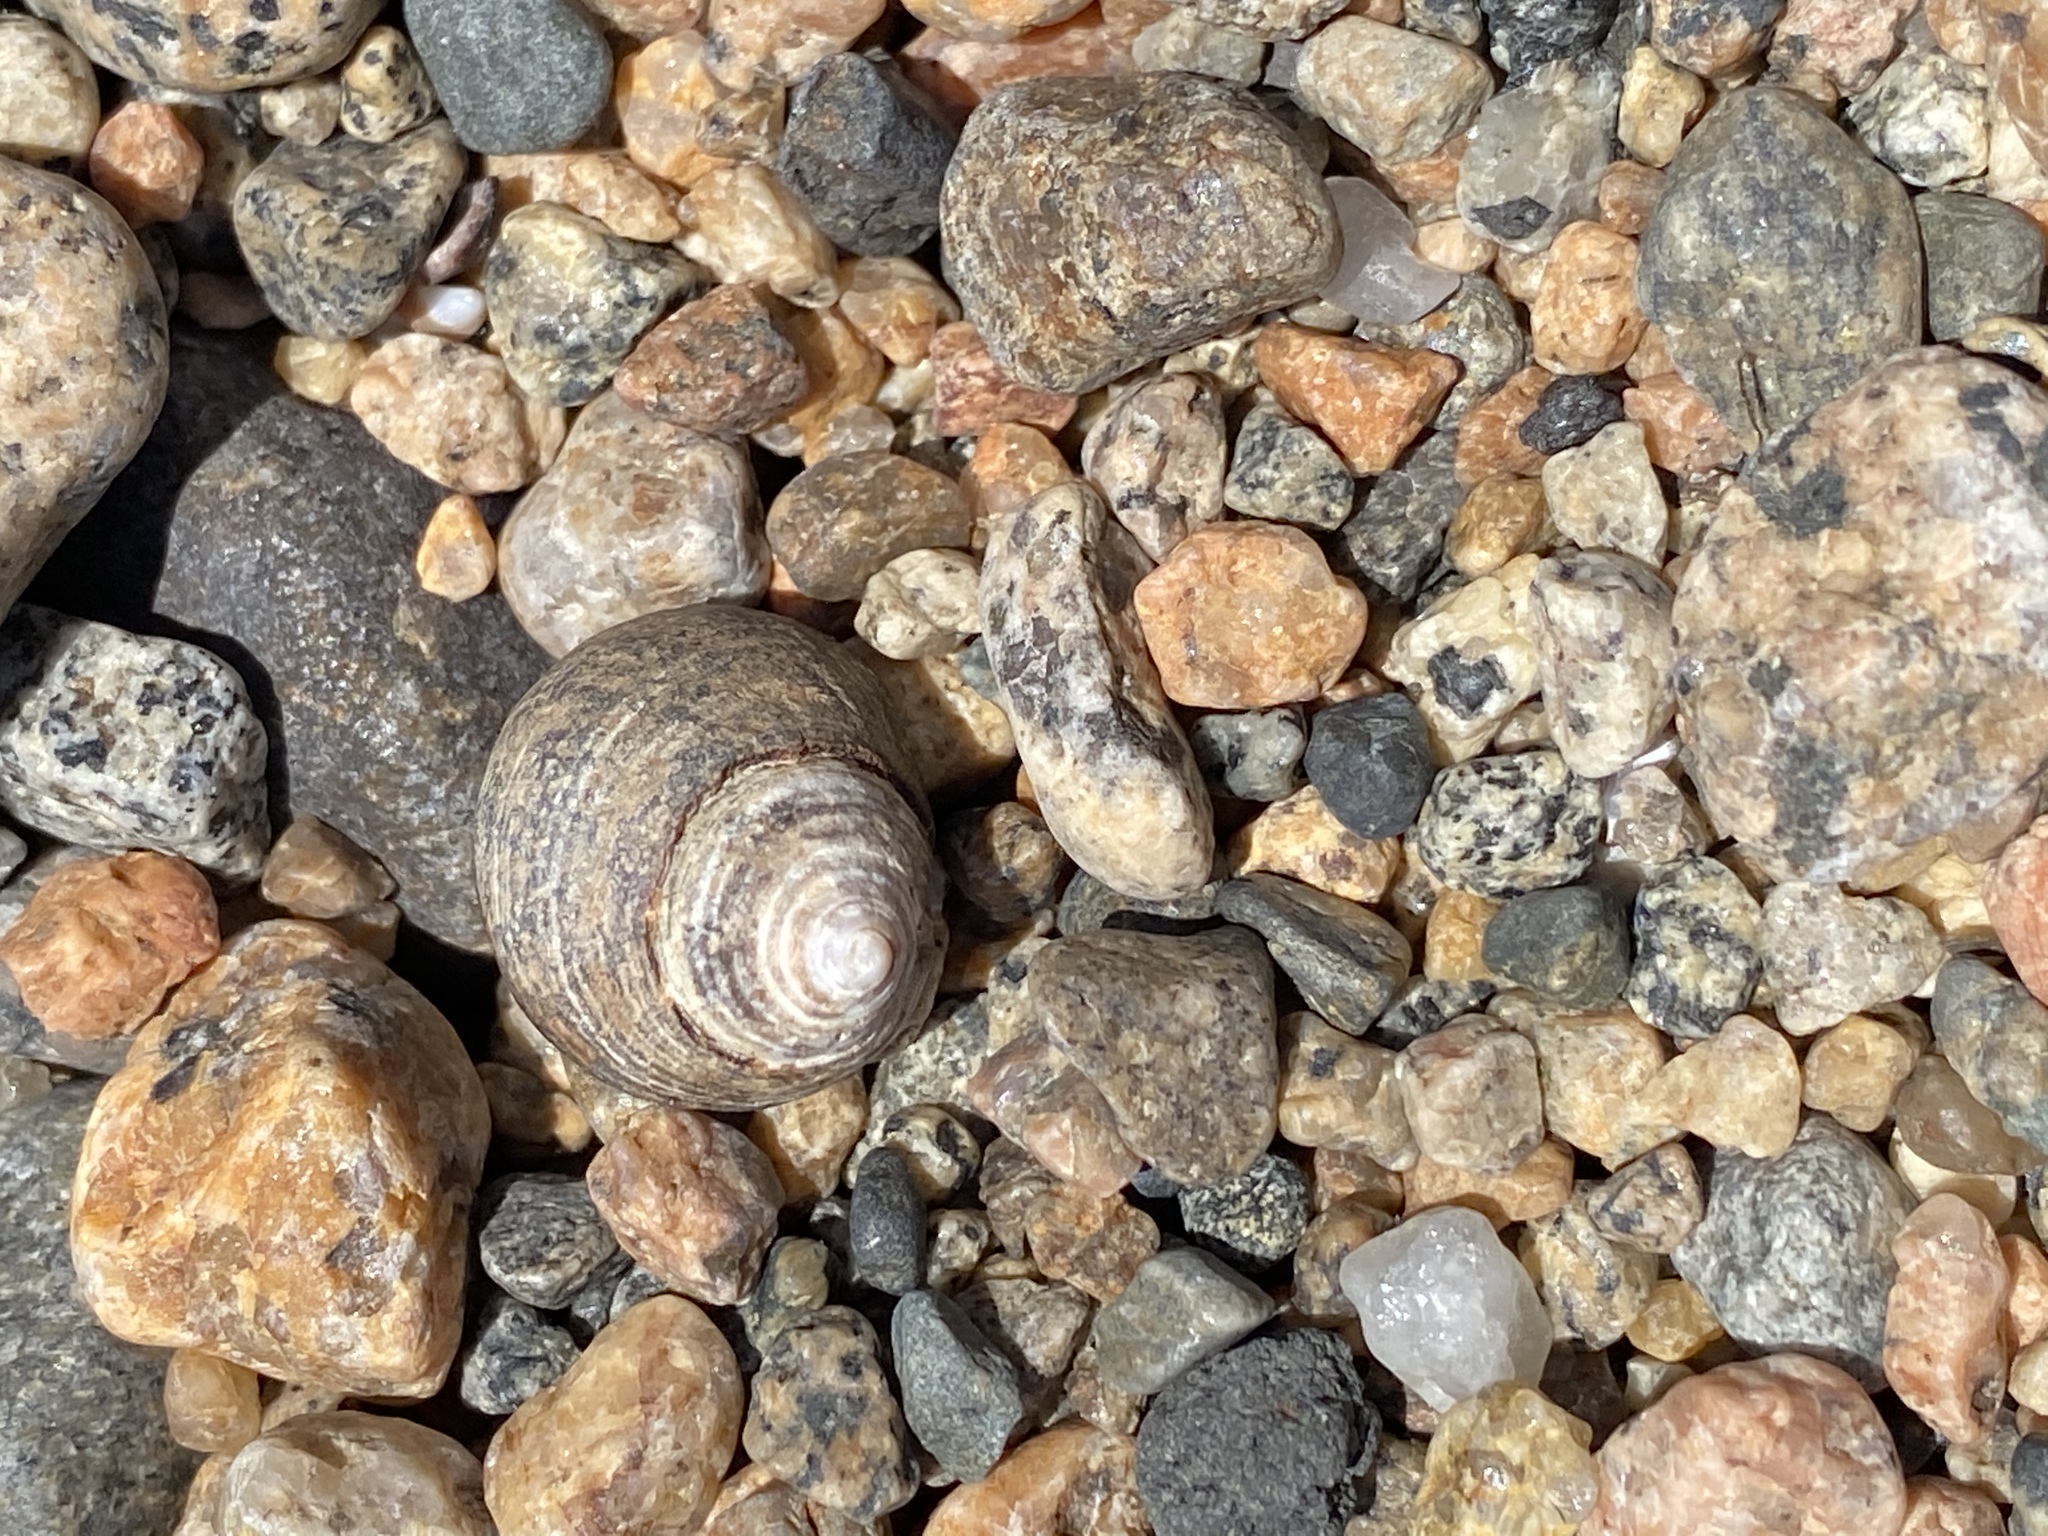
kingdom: Animalia
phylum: Mollusca
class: Gastropoda
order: Littorinimorpha
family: Littorinidae
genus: Littorina
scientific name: Littorina littorea
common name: Common periwinkle
